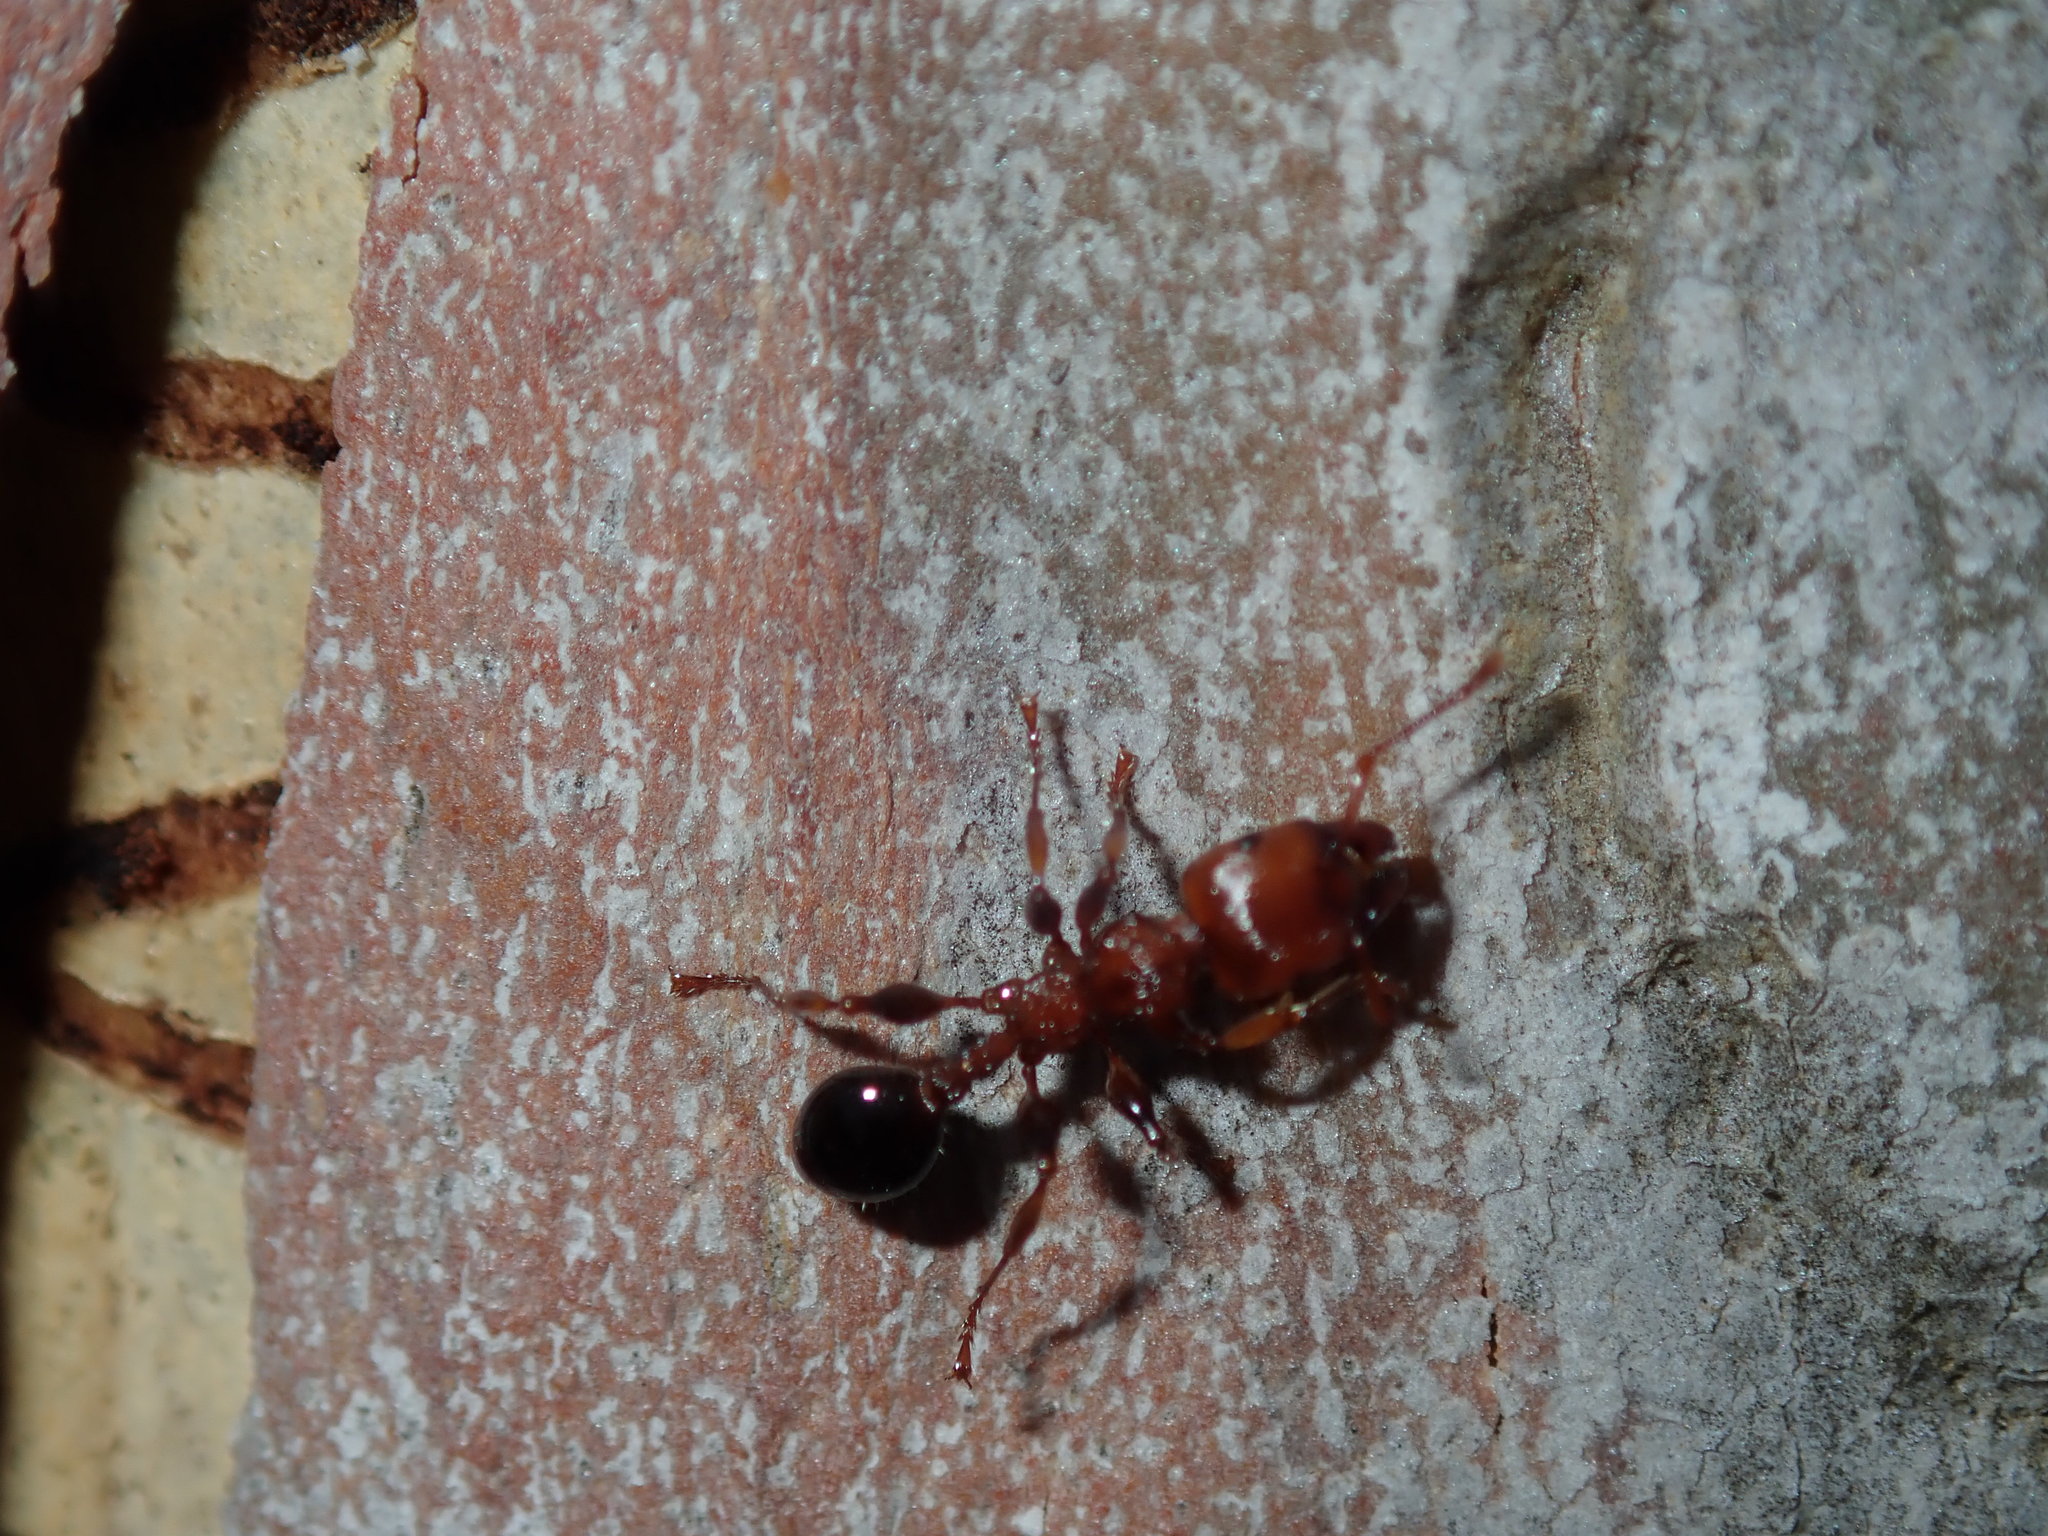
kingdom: Animalia
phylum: Arthropoda
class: Insecta
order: Hymenoptera
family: Formicidae
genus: Podomyrma
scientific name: Podomyrma gratiosa
